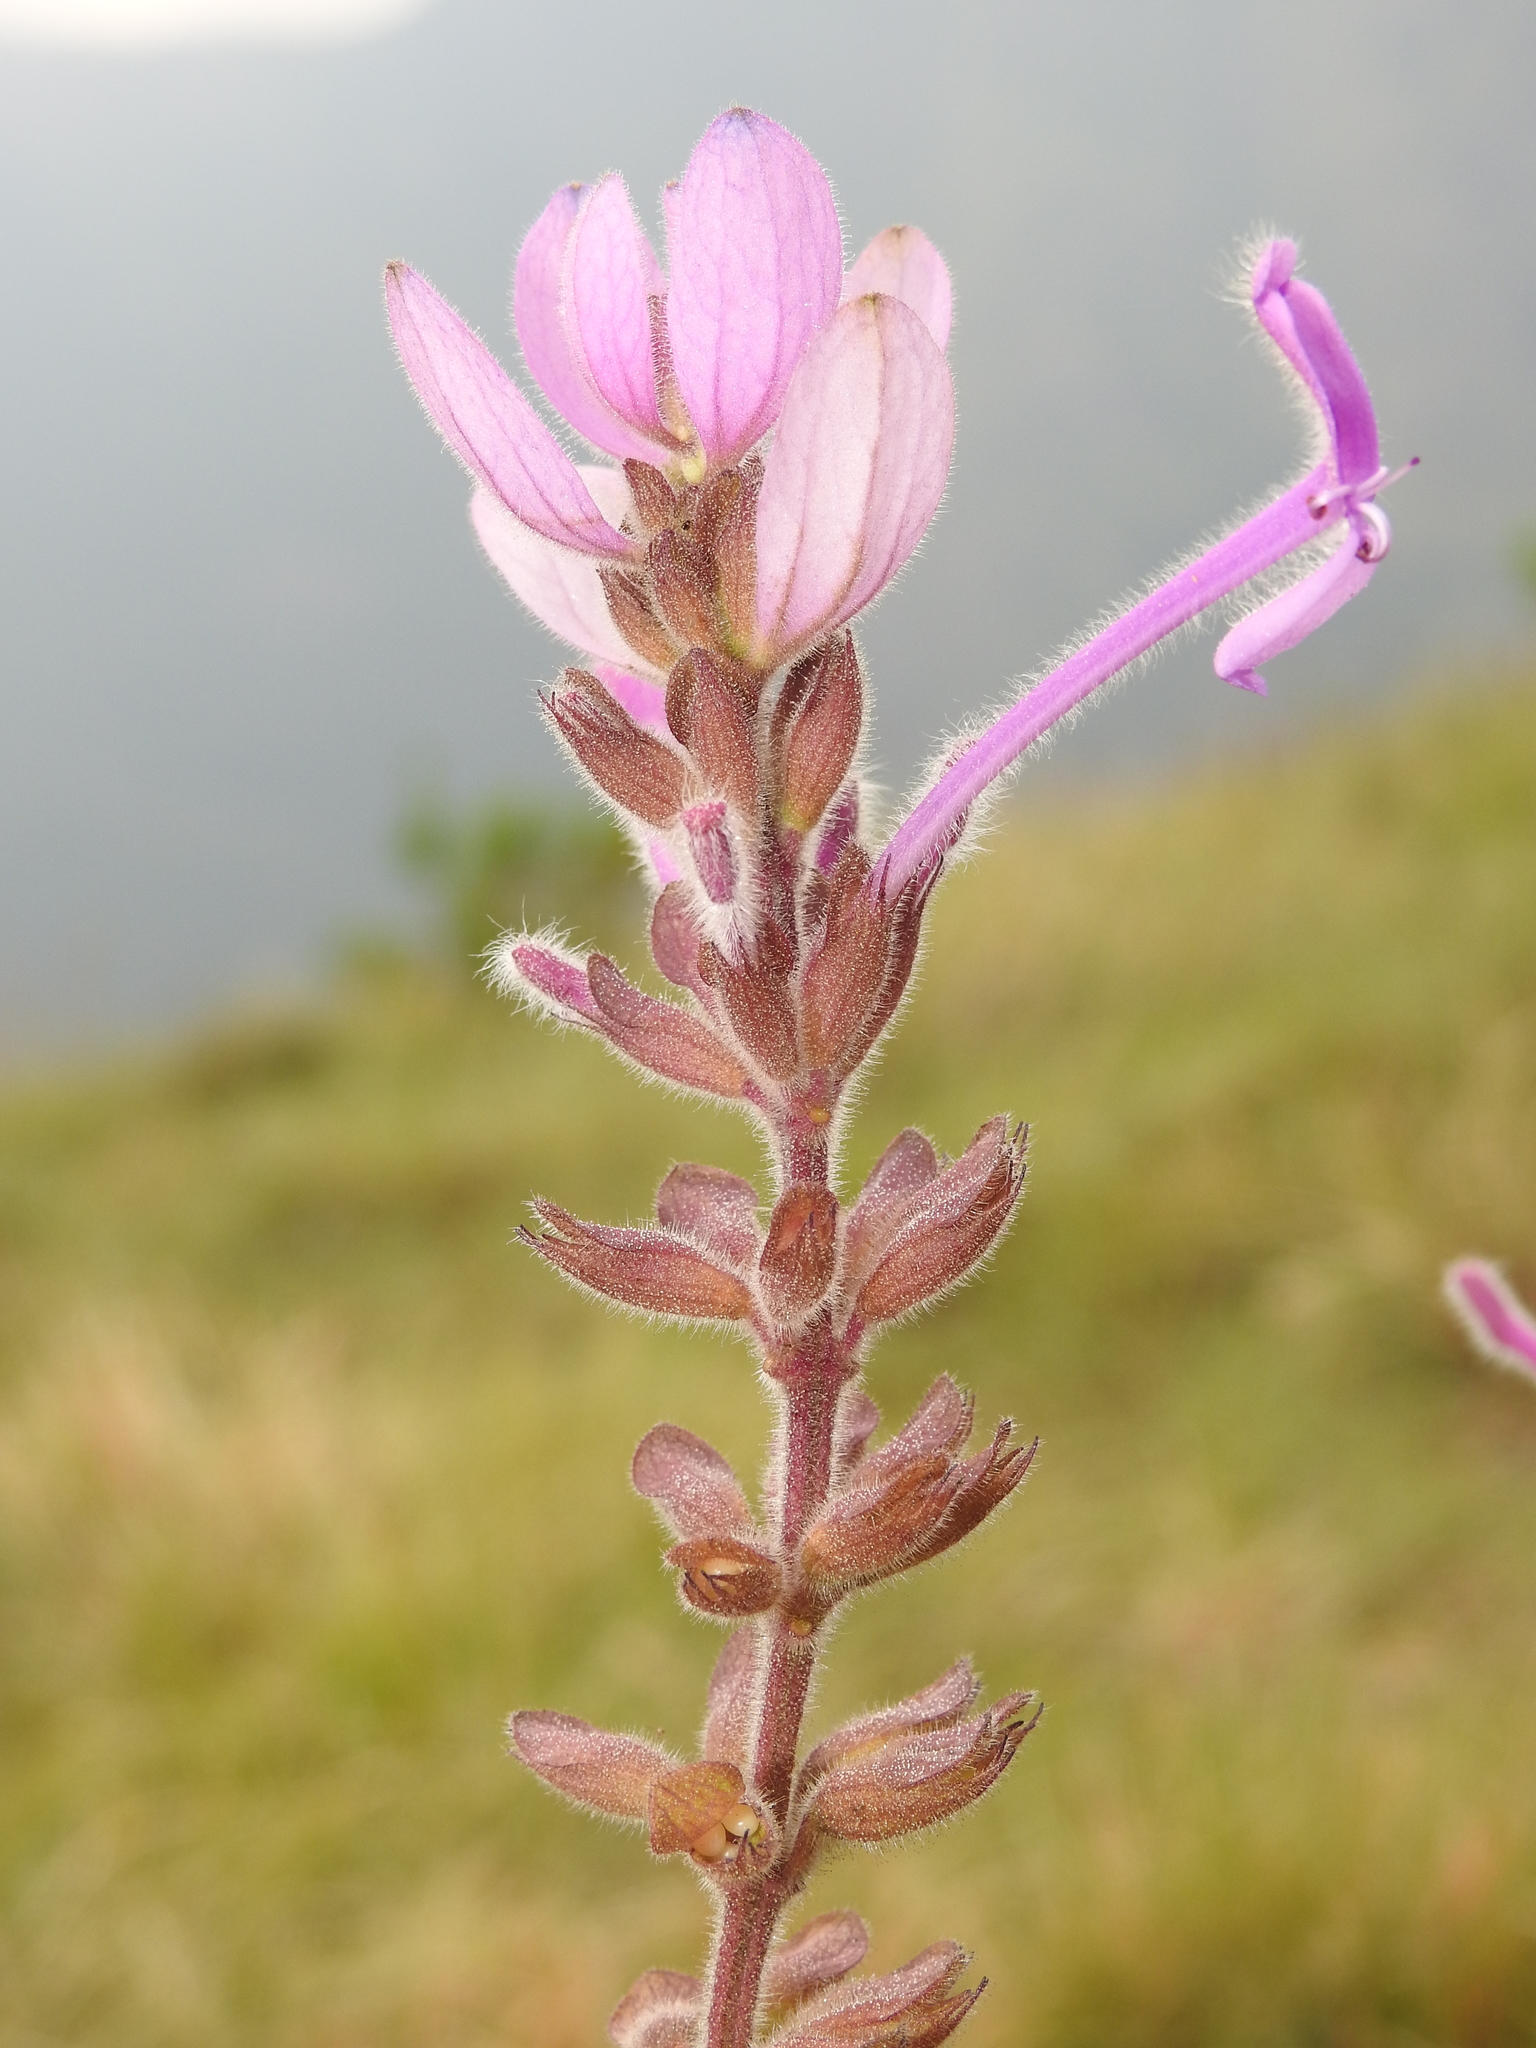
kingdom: Plantae
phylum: Tracheophyta
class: Magnoliopsida
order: Lamiales
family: Lamiaceae
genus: Syncolostemon
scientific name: Syncolostemon comosus
